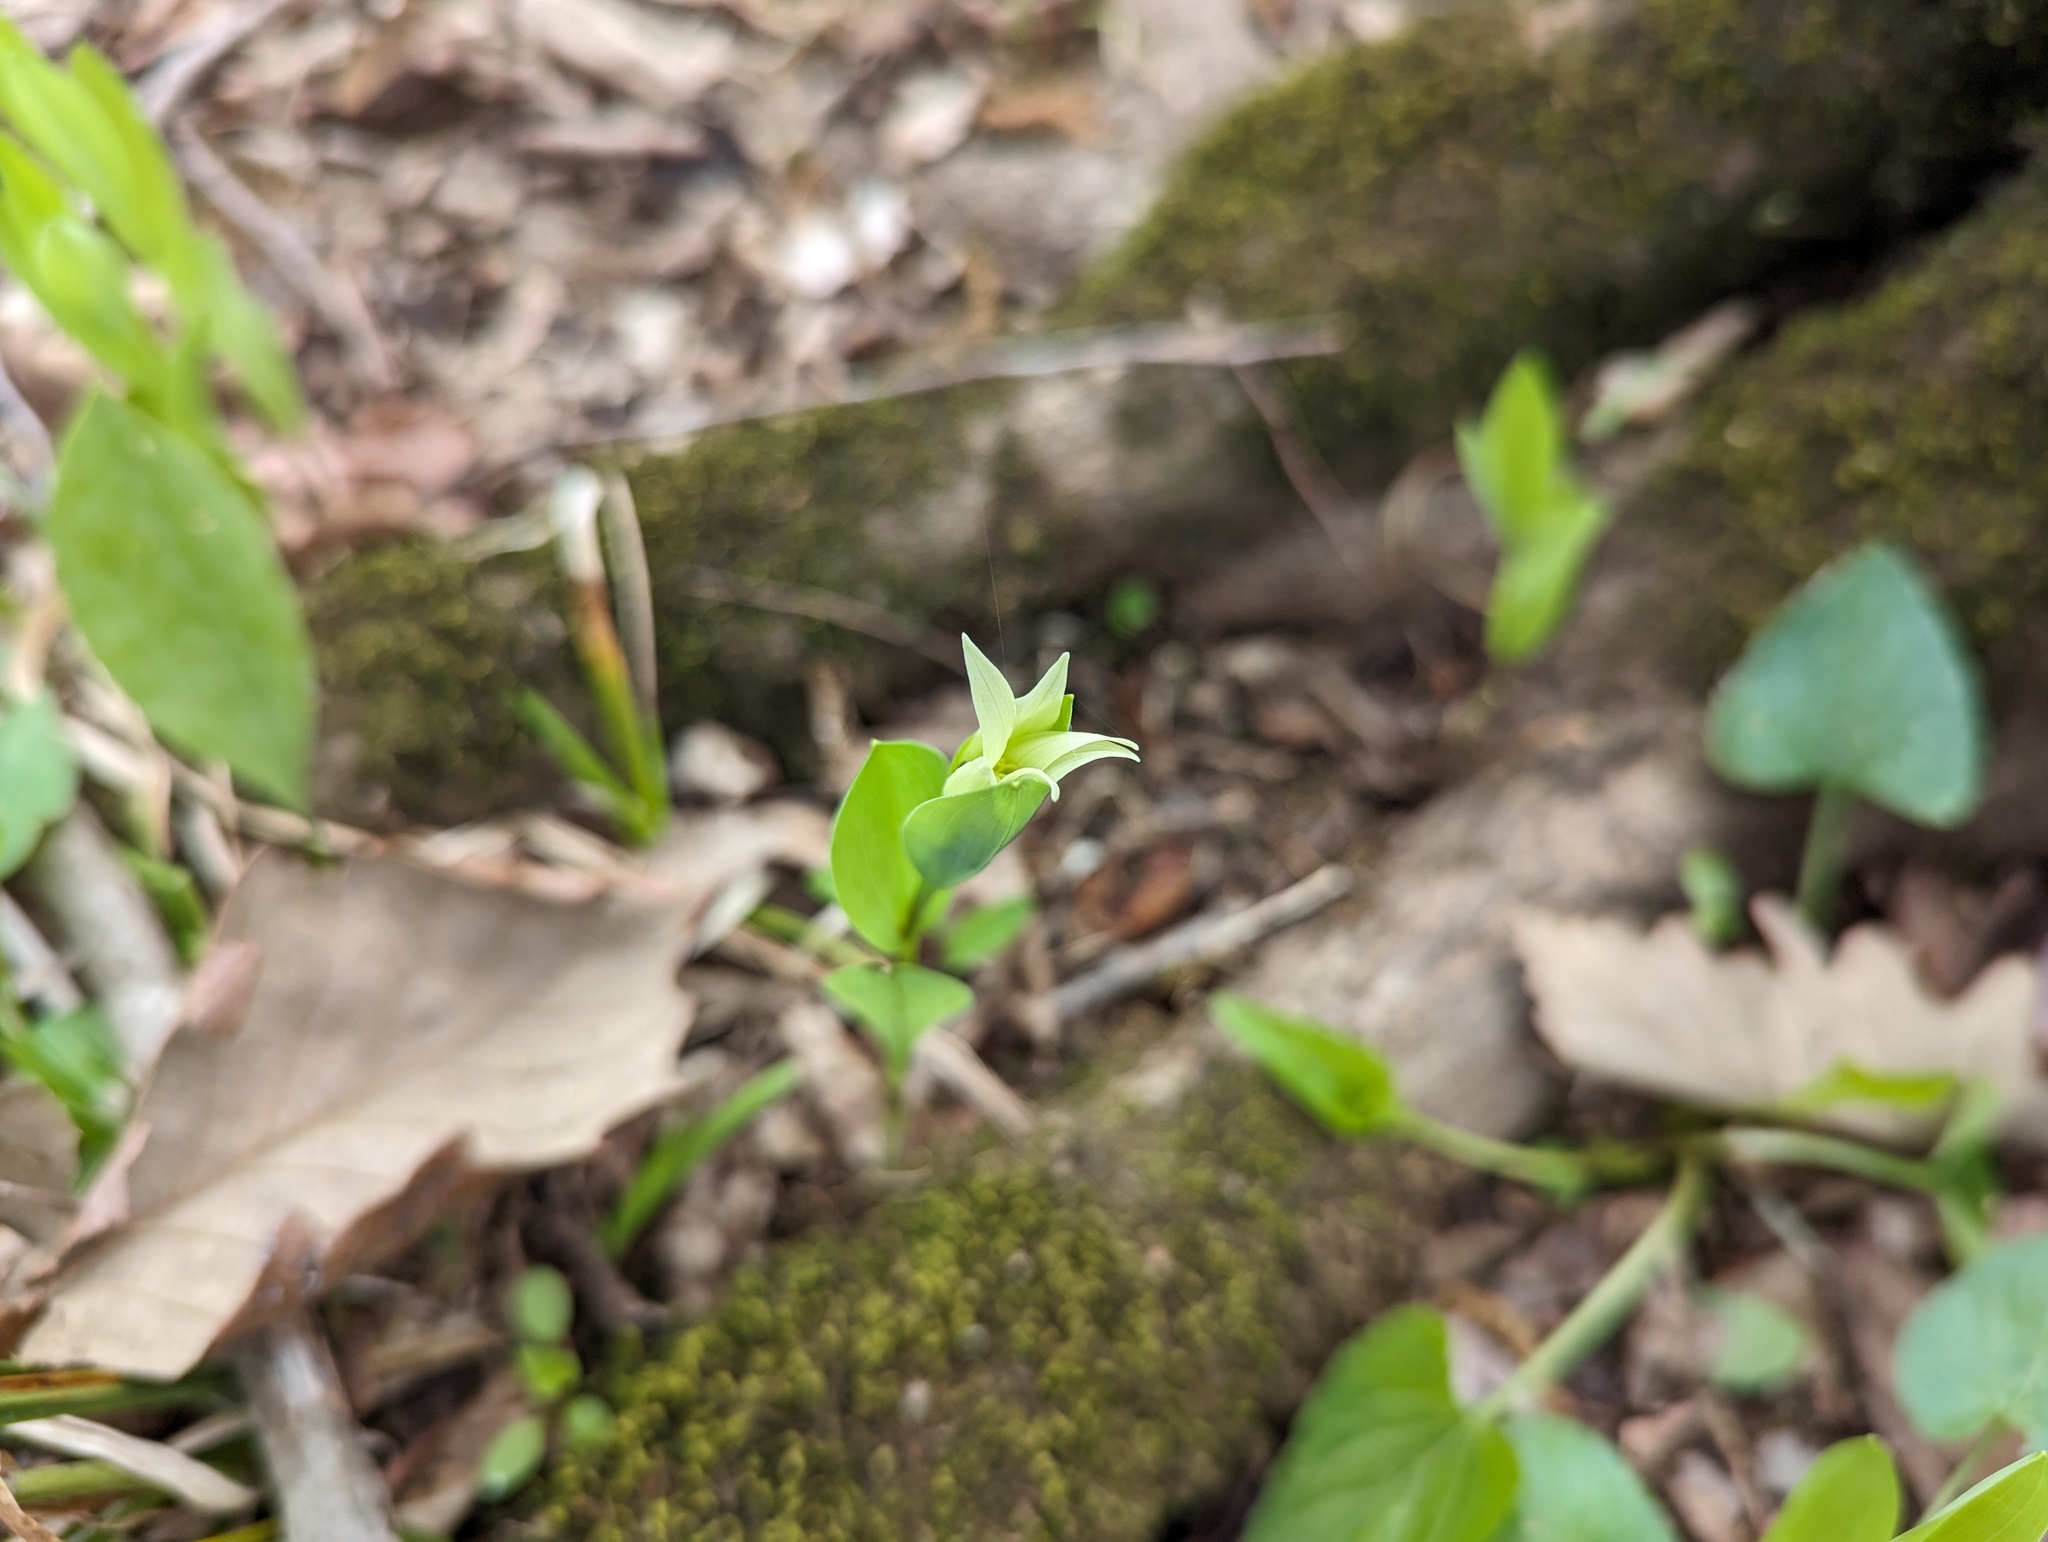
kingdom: Plantae
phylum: Tracheophyta
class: Liliopsida
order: Liliales
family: Colchicaceae
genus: Uvularia
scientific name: Uvularia floridana
